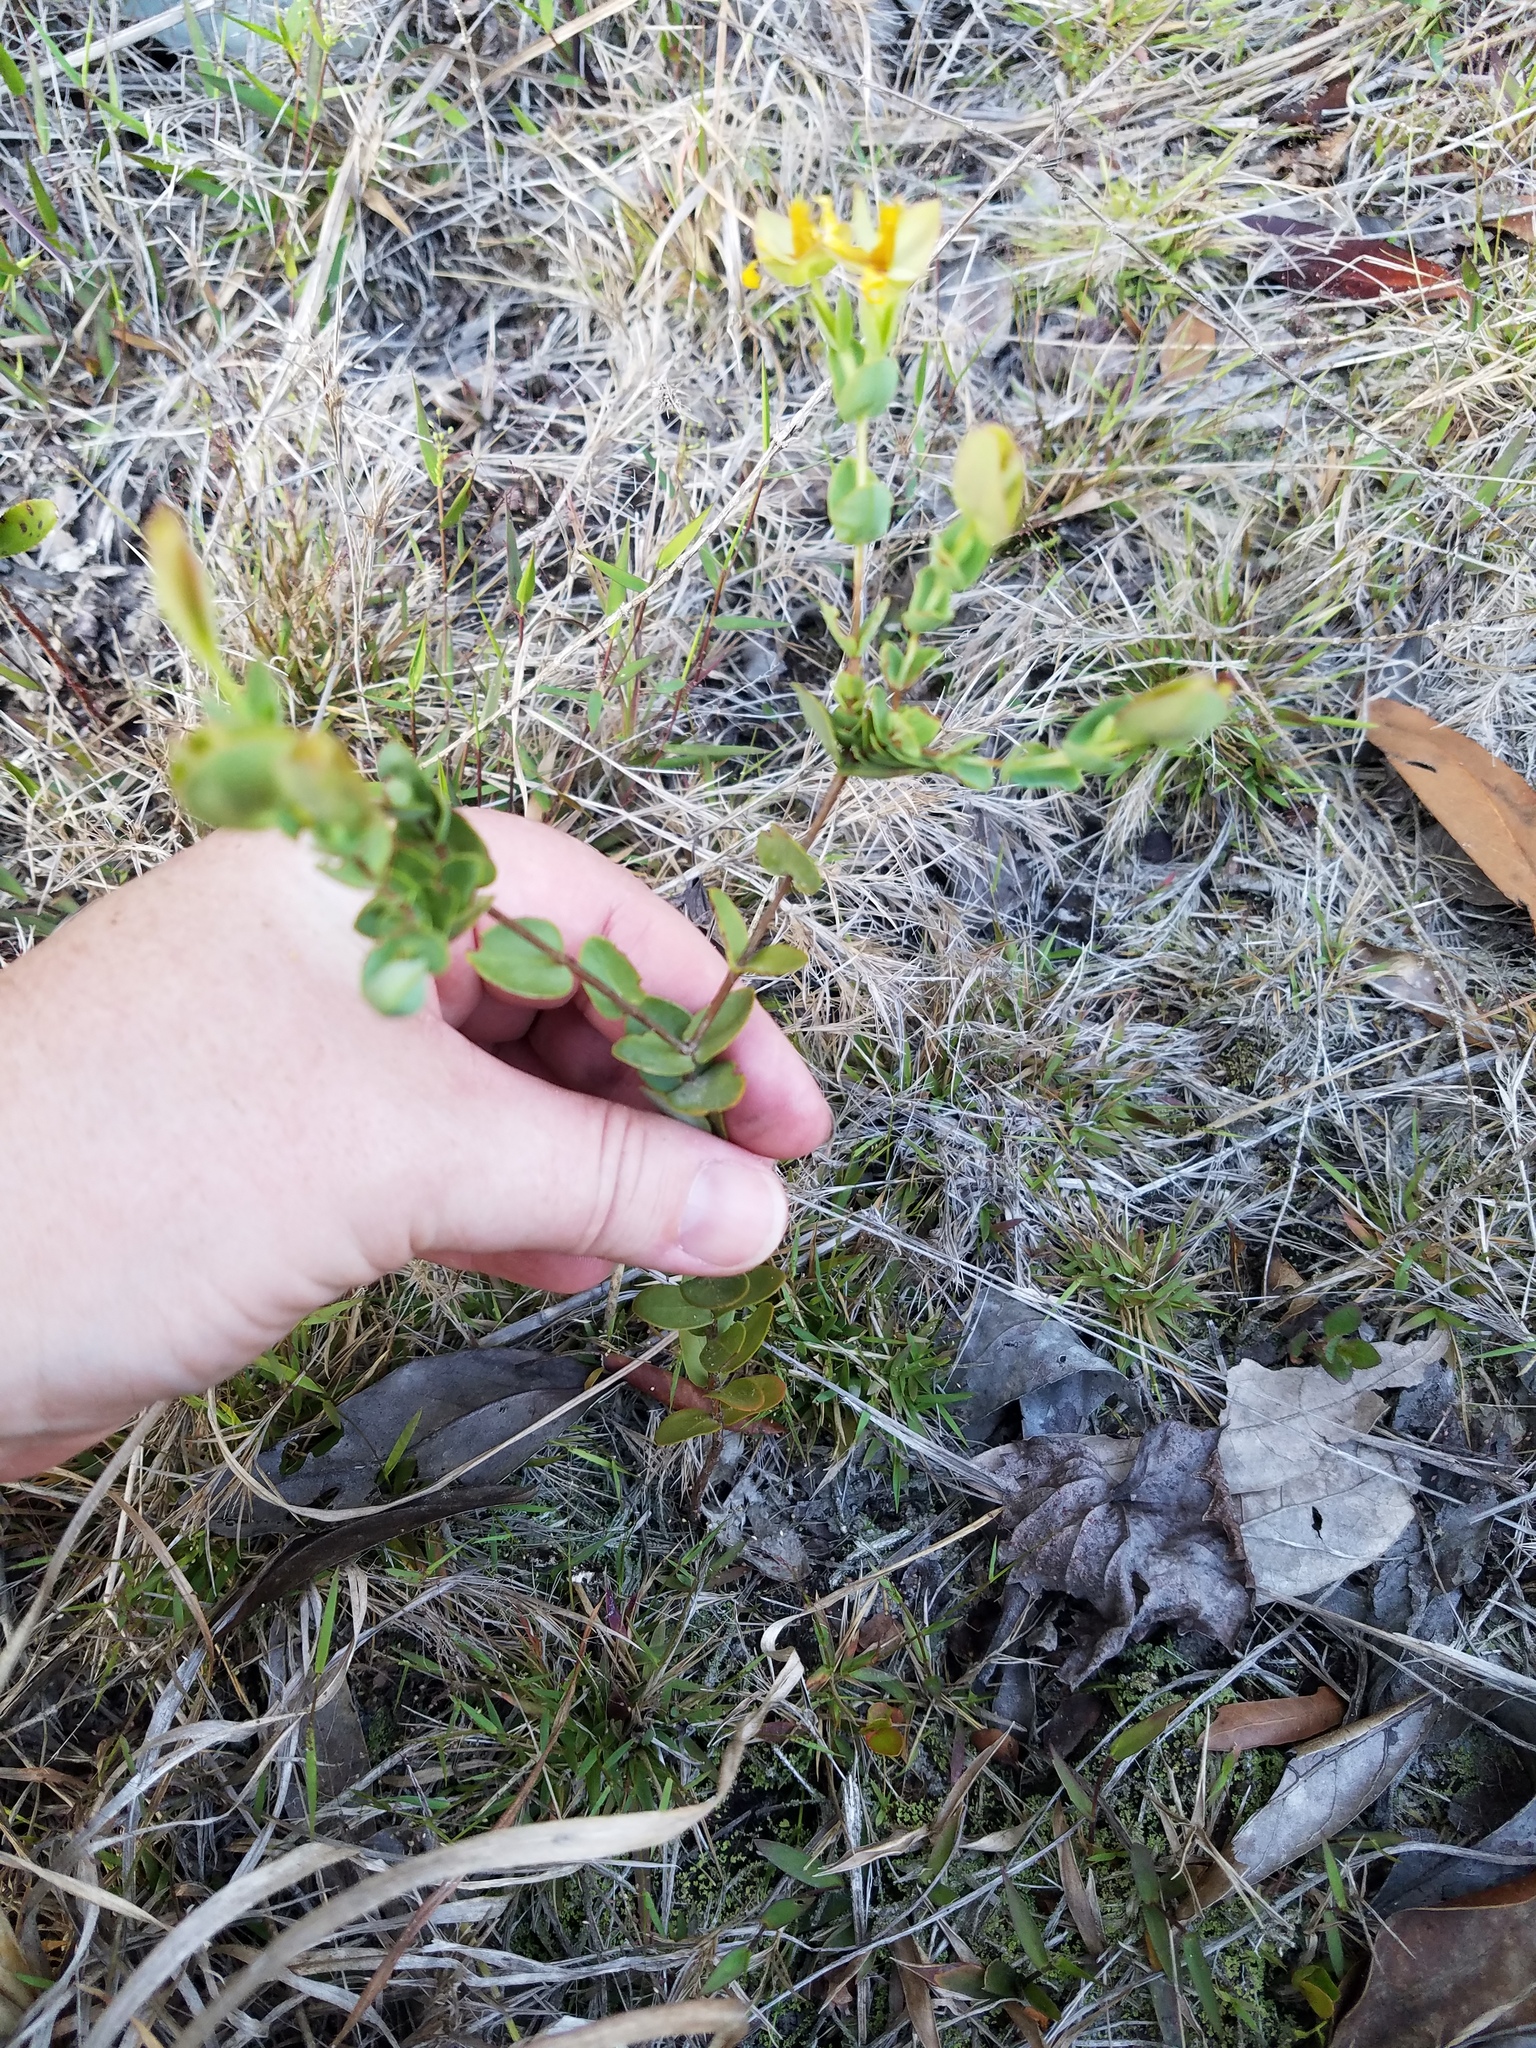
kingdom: Plantae
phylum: Tracheophyta
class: Magnoliopsida
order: Malpighiales
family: Hypericaceae
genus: Hypericum
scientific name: Hypericum tetrapetalum
